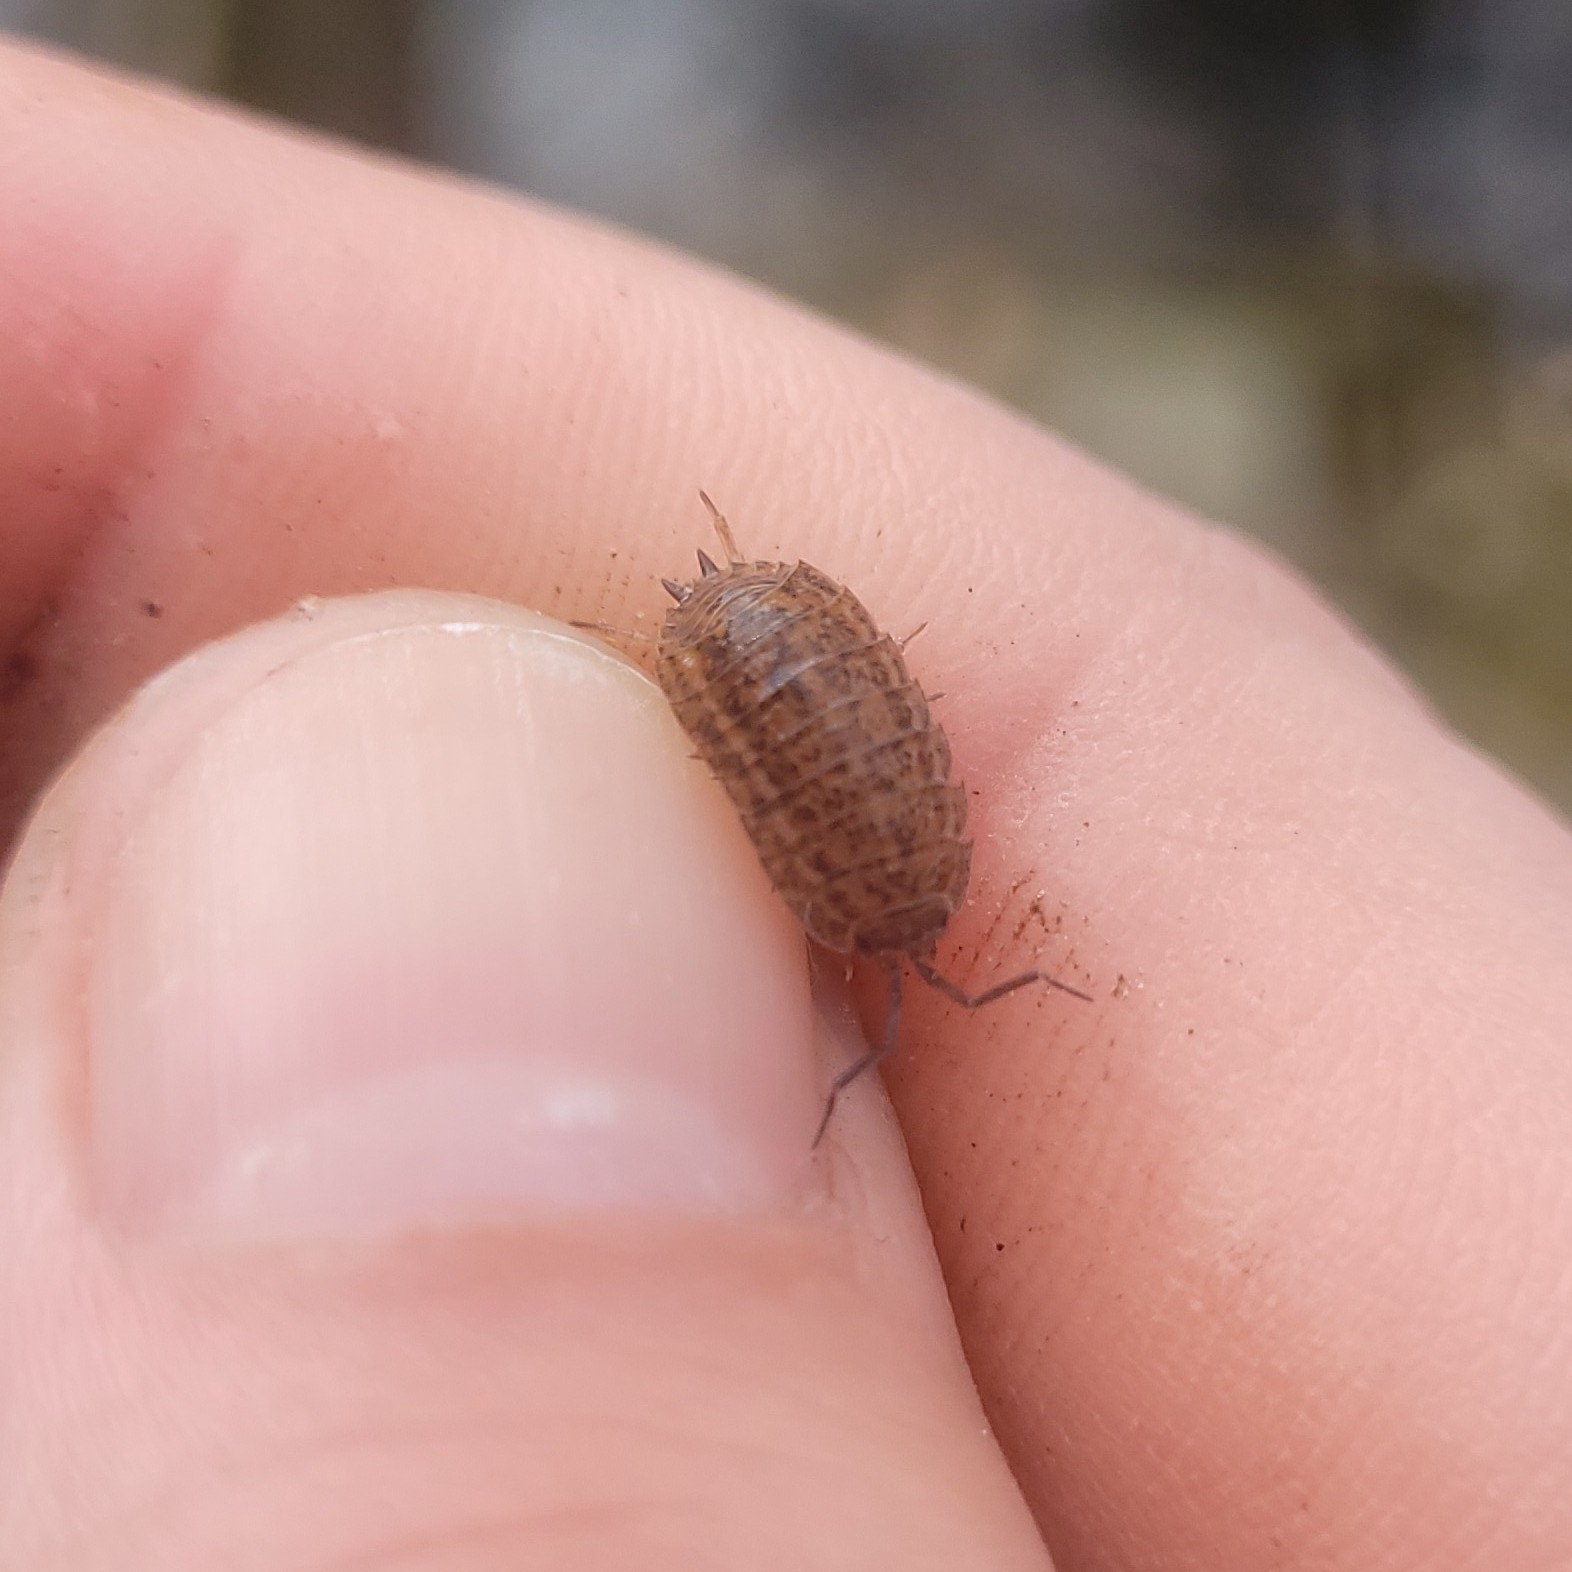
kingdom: Animalia
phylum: Arthropoda
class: Malacostraca
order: Isopoda
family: Trachelipodidae
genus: Trachelipus
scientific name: Trachelipus rathkii
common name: Isopod
